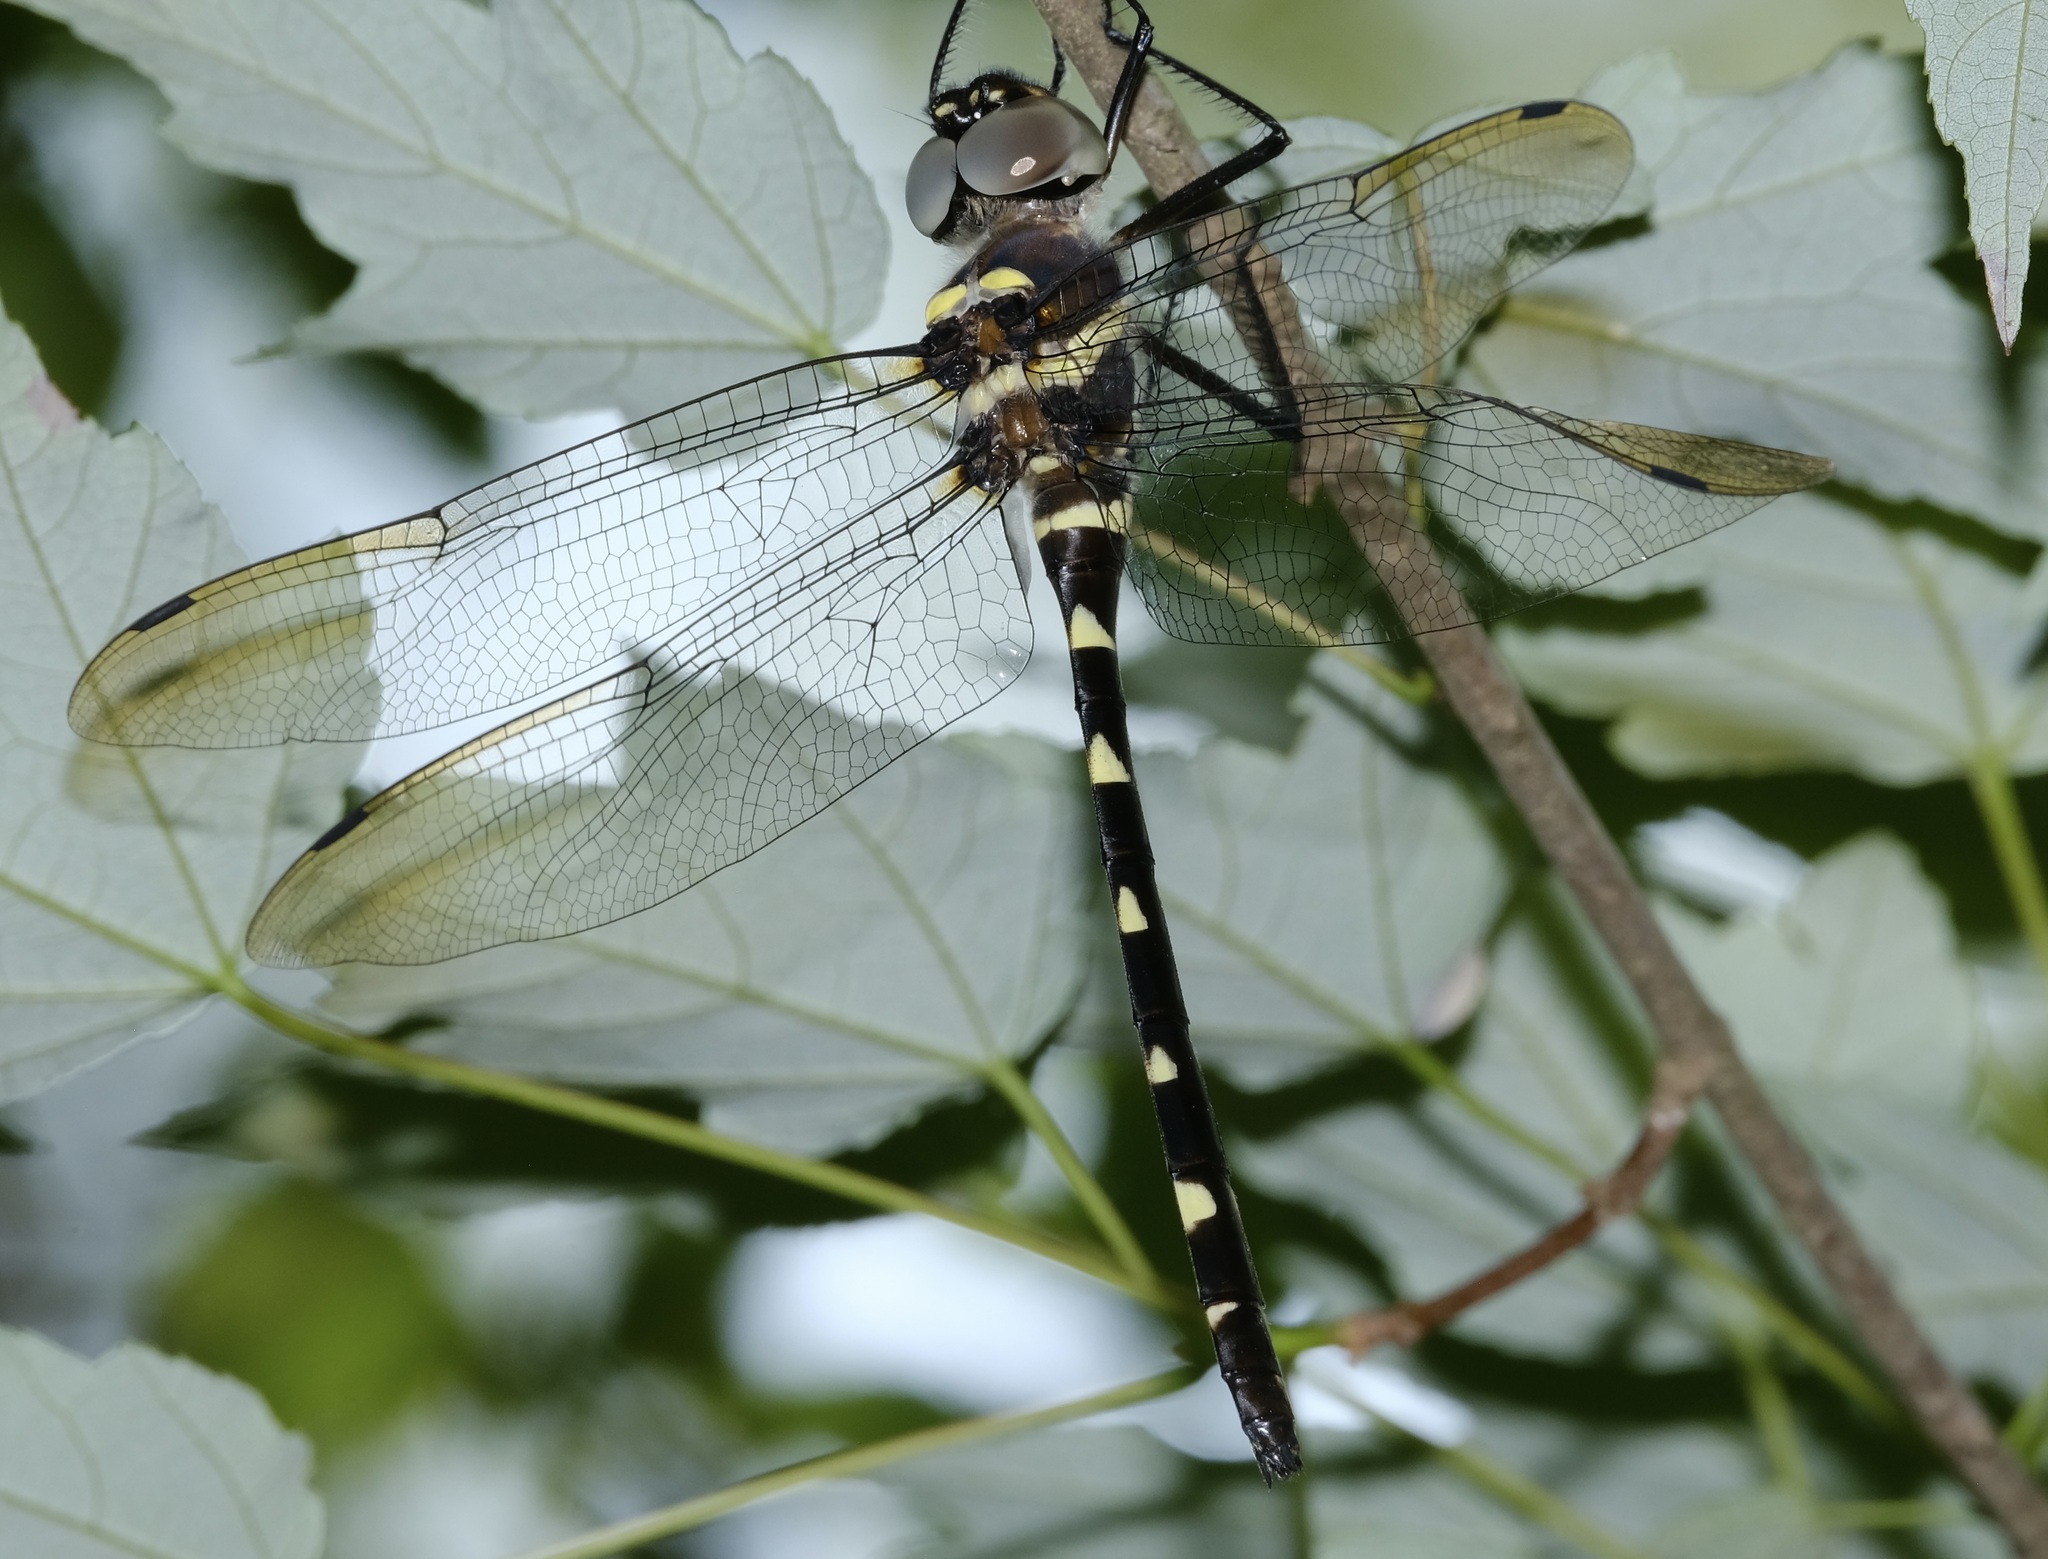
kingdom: Animalia
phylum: Arthropoda
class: Insecta
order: Odonata
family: Macromiidae
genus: Macromia
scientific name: Macromia illinoiensis
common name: Swift river cruiser
